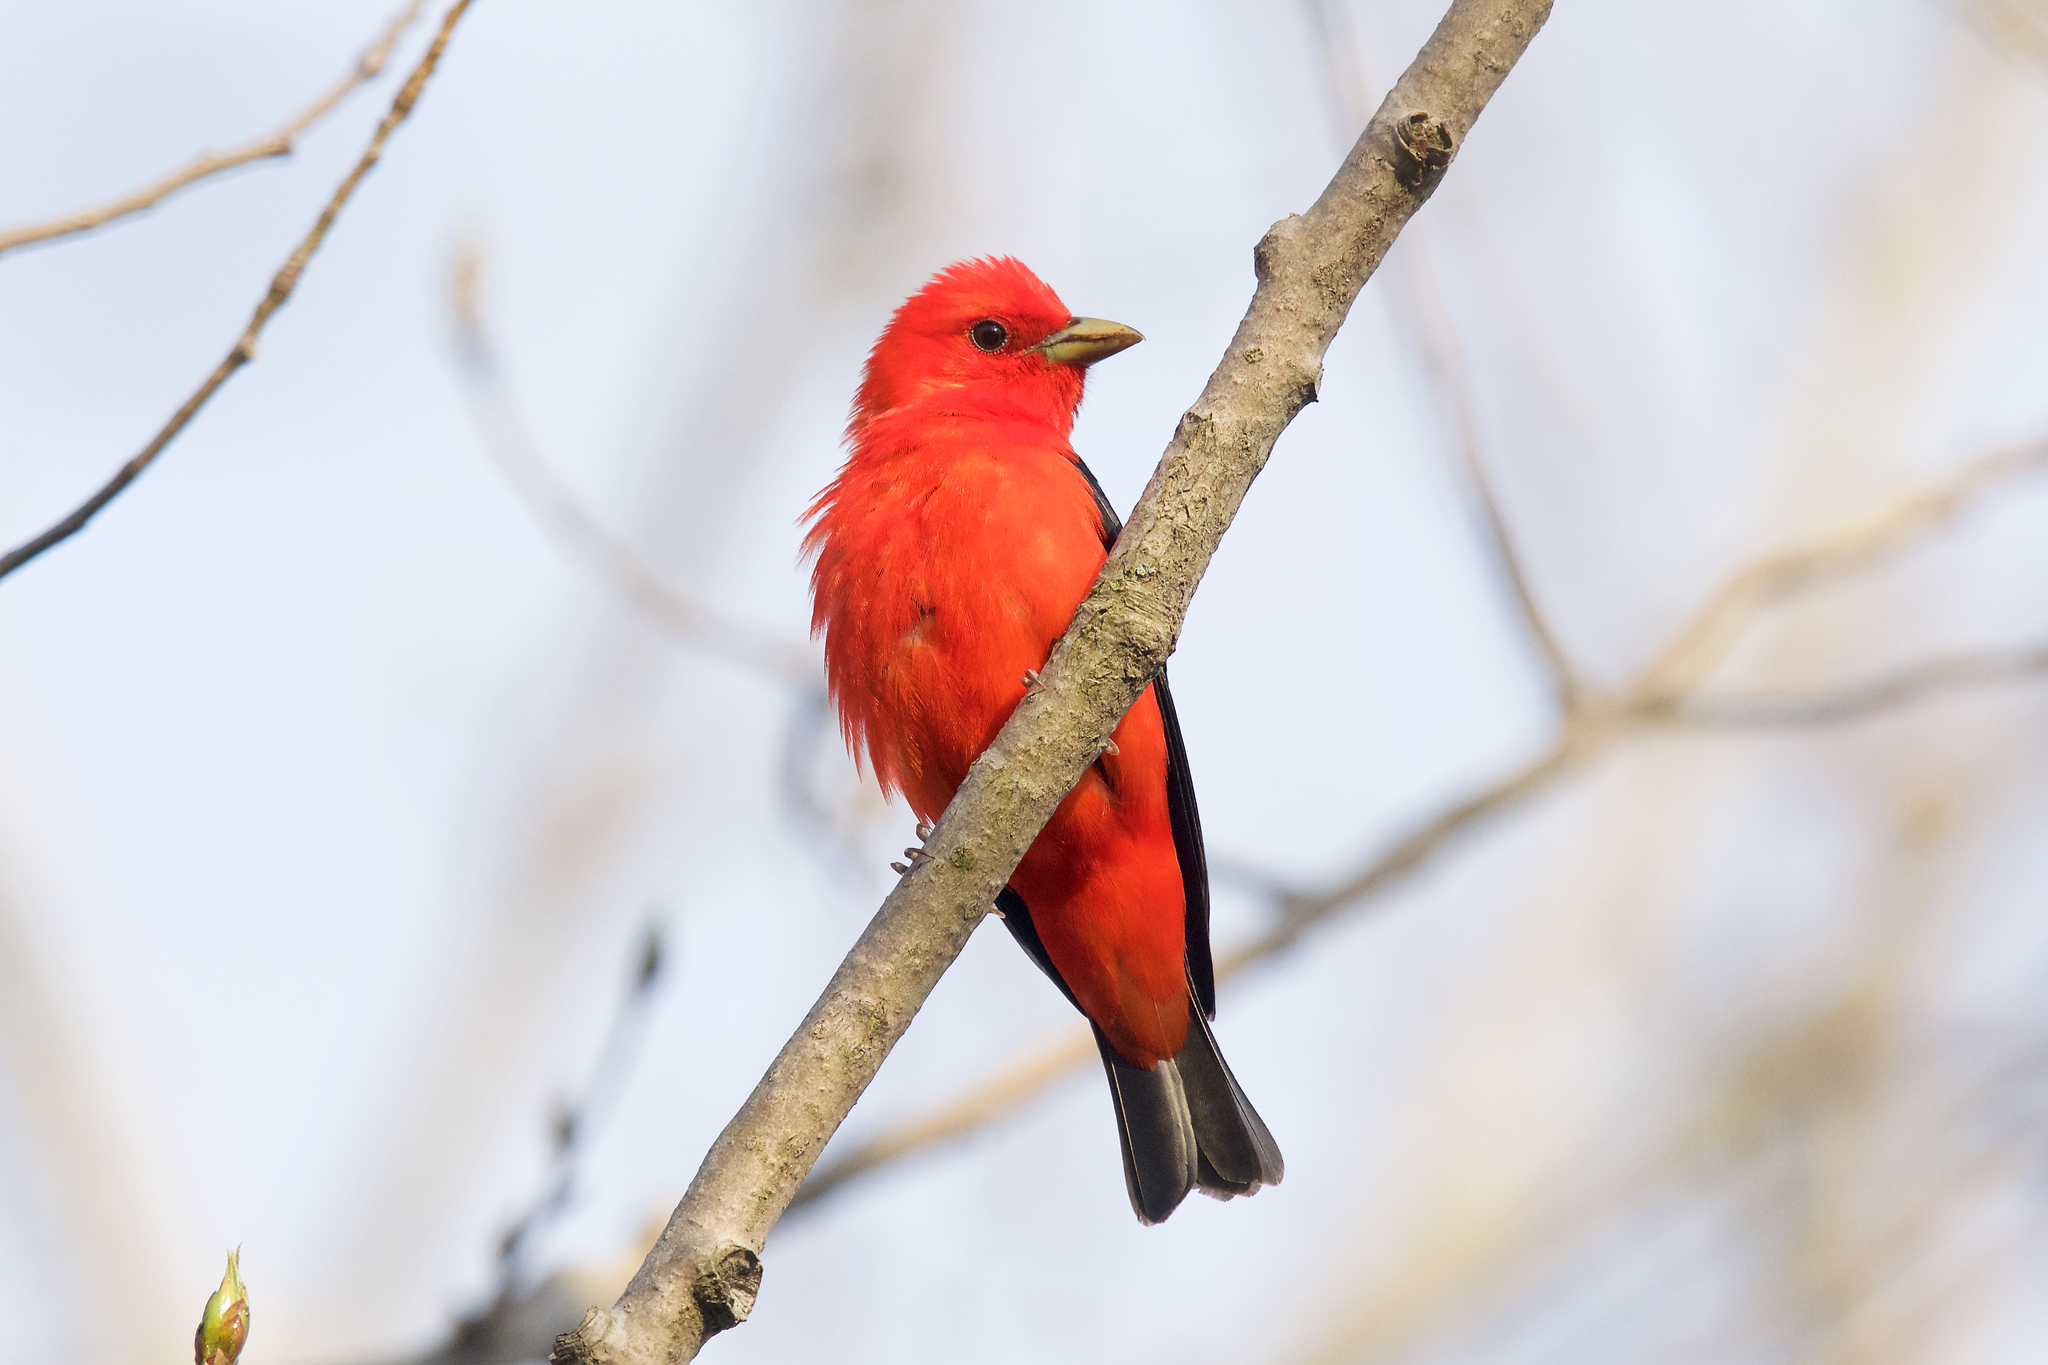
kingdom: Animalia
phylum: Chordata
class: Aves
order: Passeriformes
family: Cardinalidae
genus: Piranga
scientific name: Piranga olivacea
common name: Scarlet tanager
